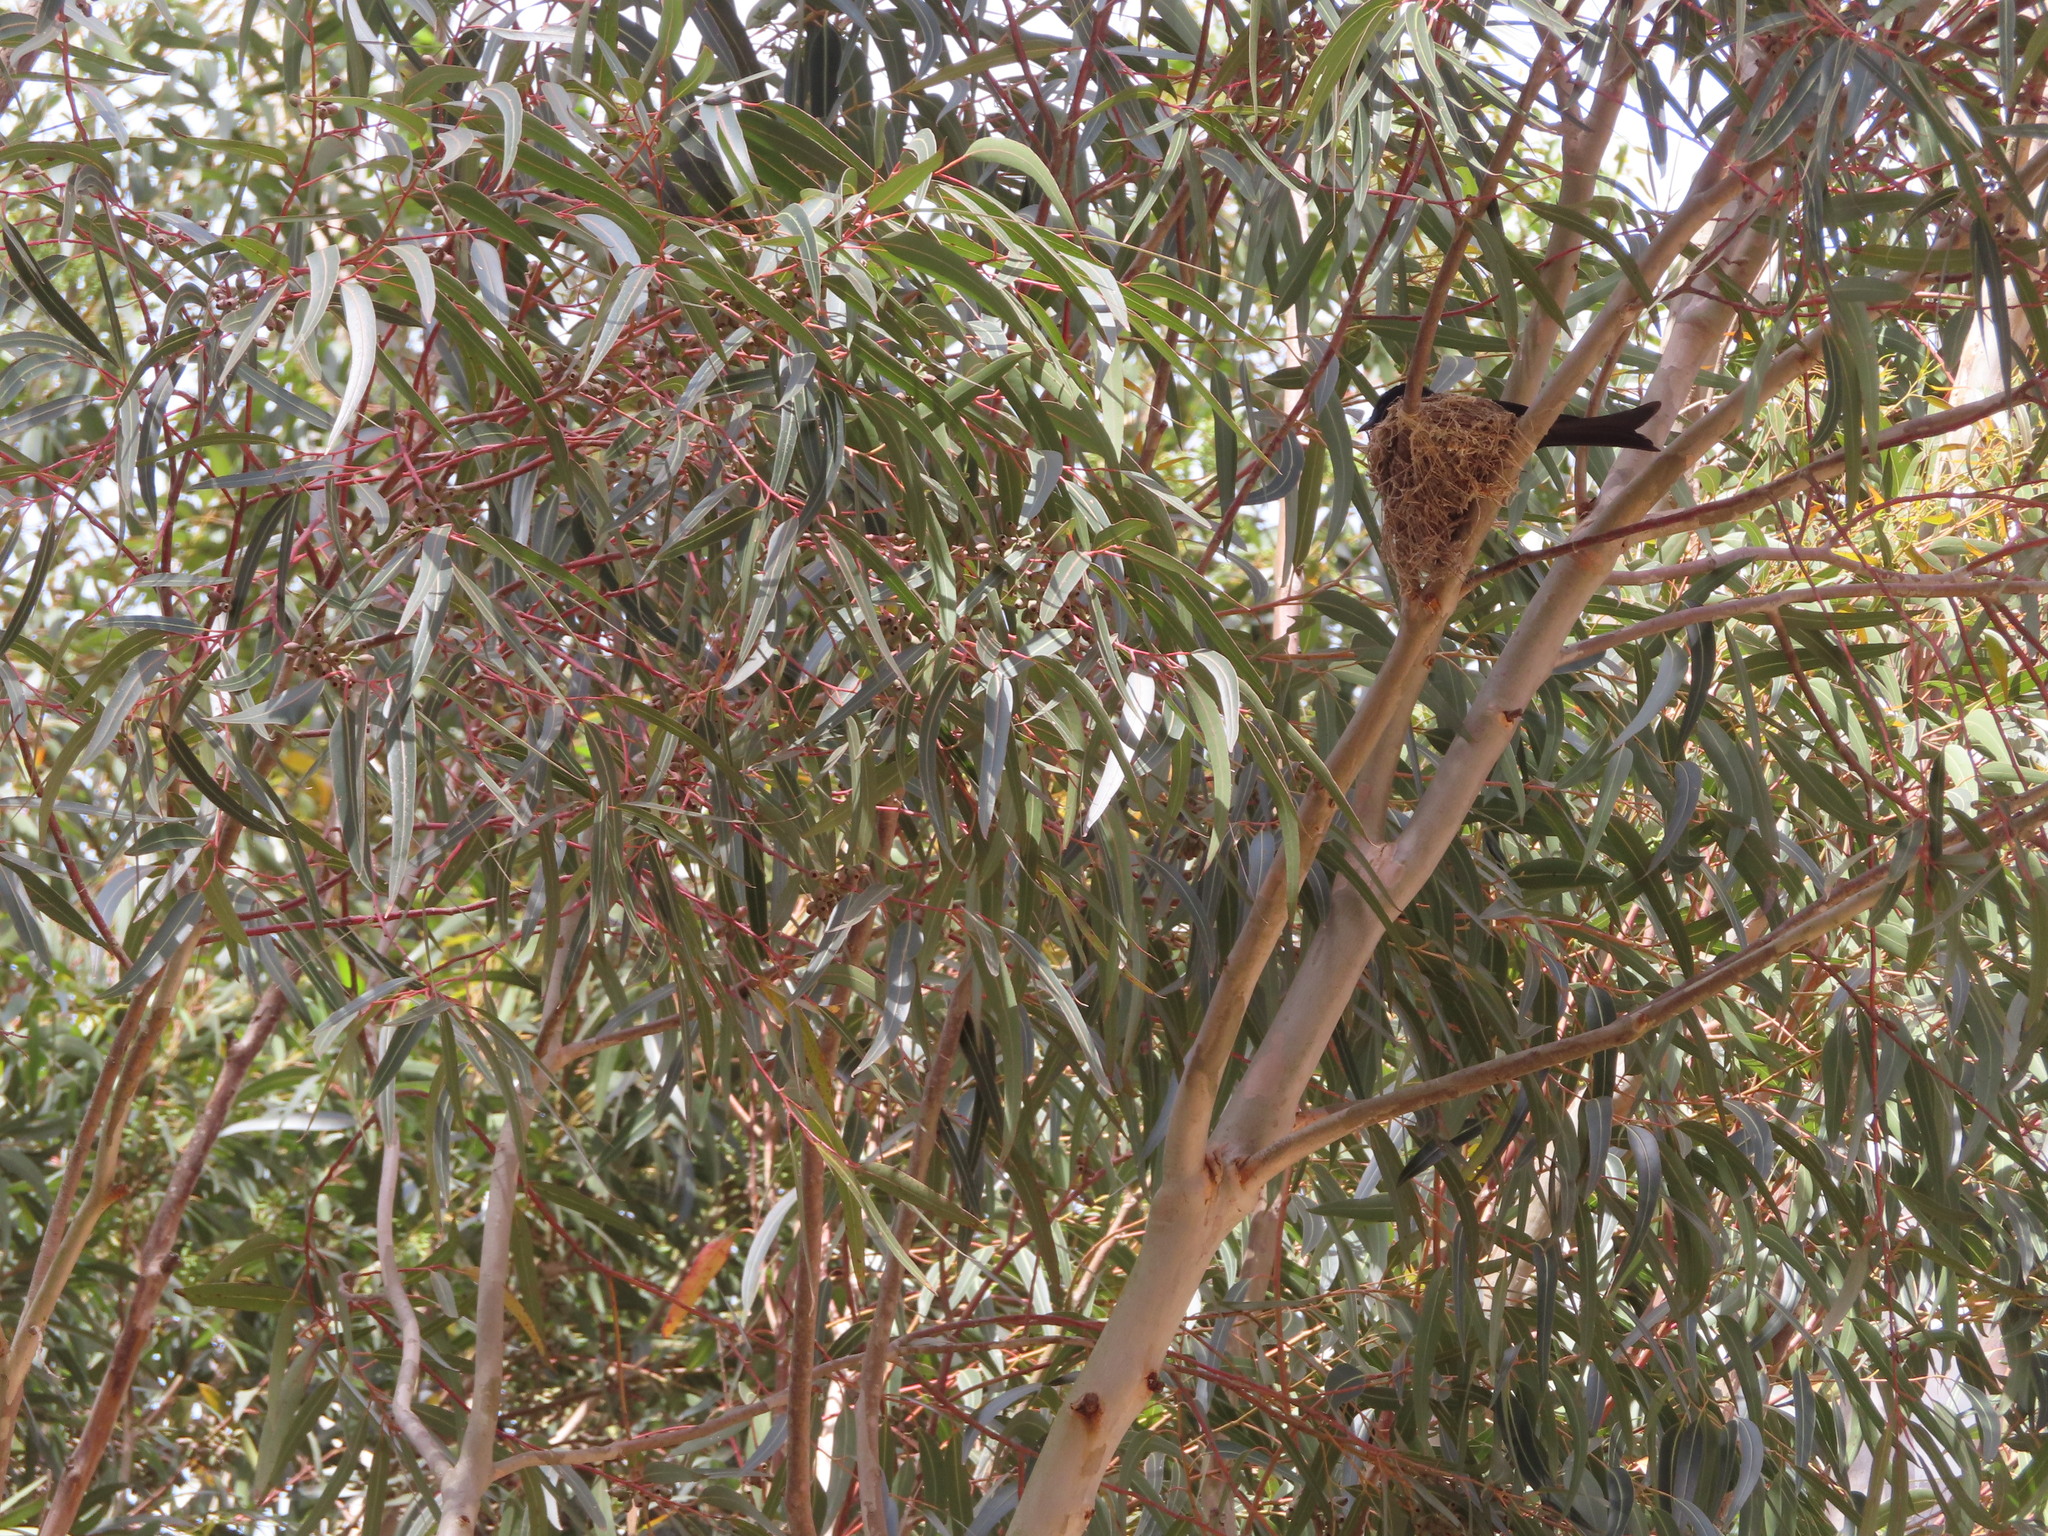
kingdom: Plantae
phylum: Tracheophyta
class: Magnoliopsida
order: Myrtales
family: Myrtaceae
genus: Eucalyptus
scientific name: Eucalyptus cladocalyx
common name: Sugargum
